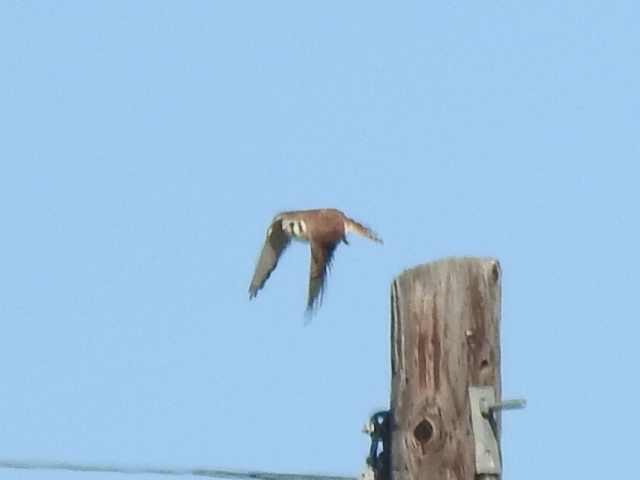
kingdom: Animalia
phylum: Chordata
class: Aves
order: Falconiformes
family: Falconidae
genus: Falco
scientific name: Falco sparverius
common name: American kestrel
